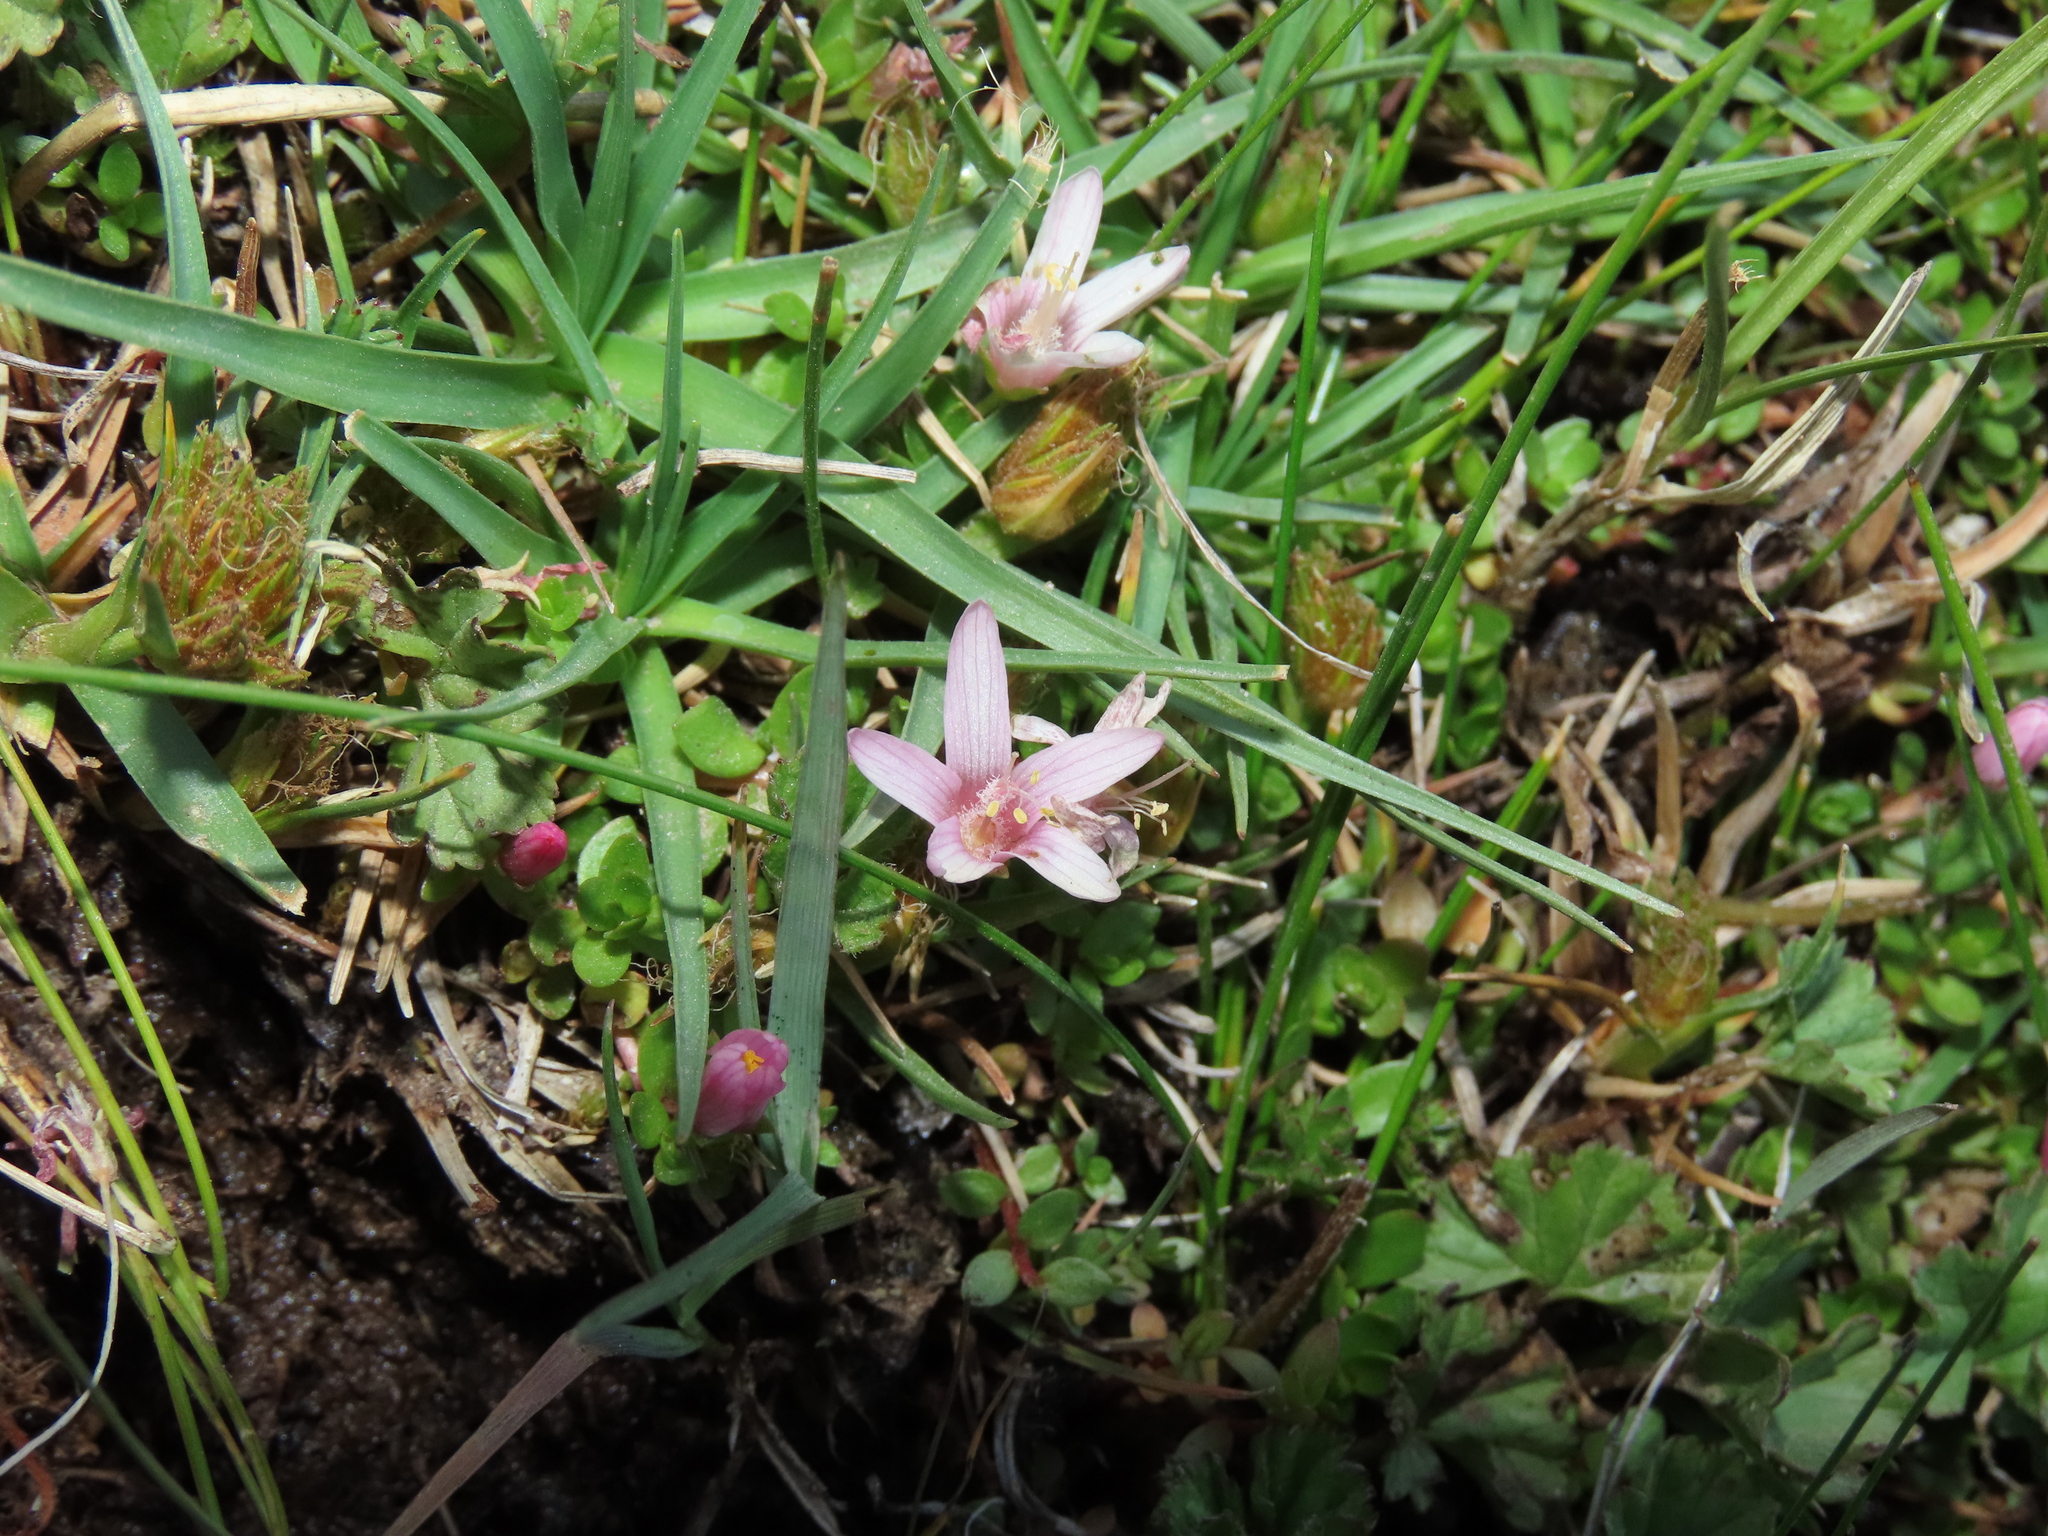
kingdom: Plantae
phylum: Tracheophyta
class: Magnoliopsida
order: Ericales
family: Primulaceae
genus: Lysimachia
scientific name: Lysimachia amoena
